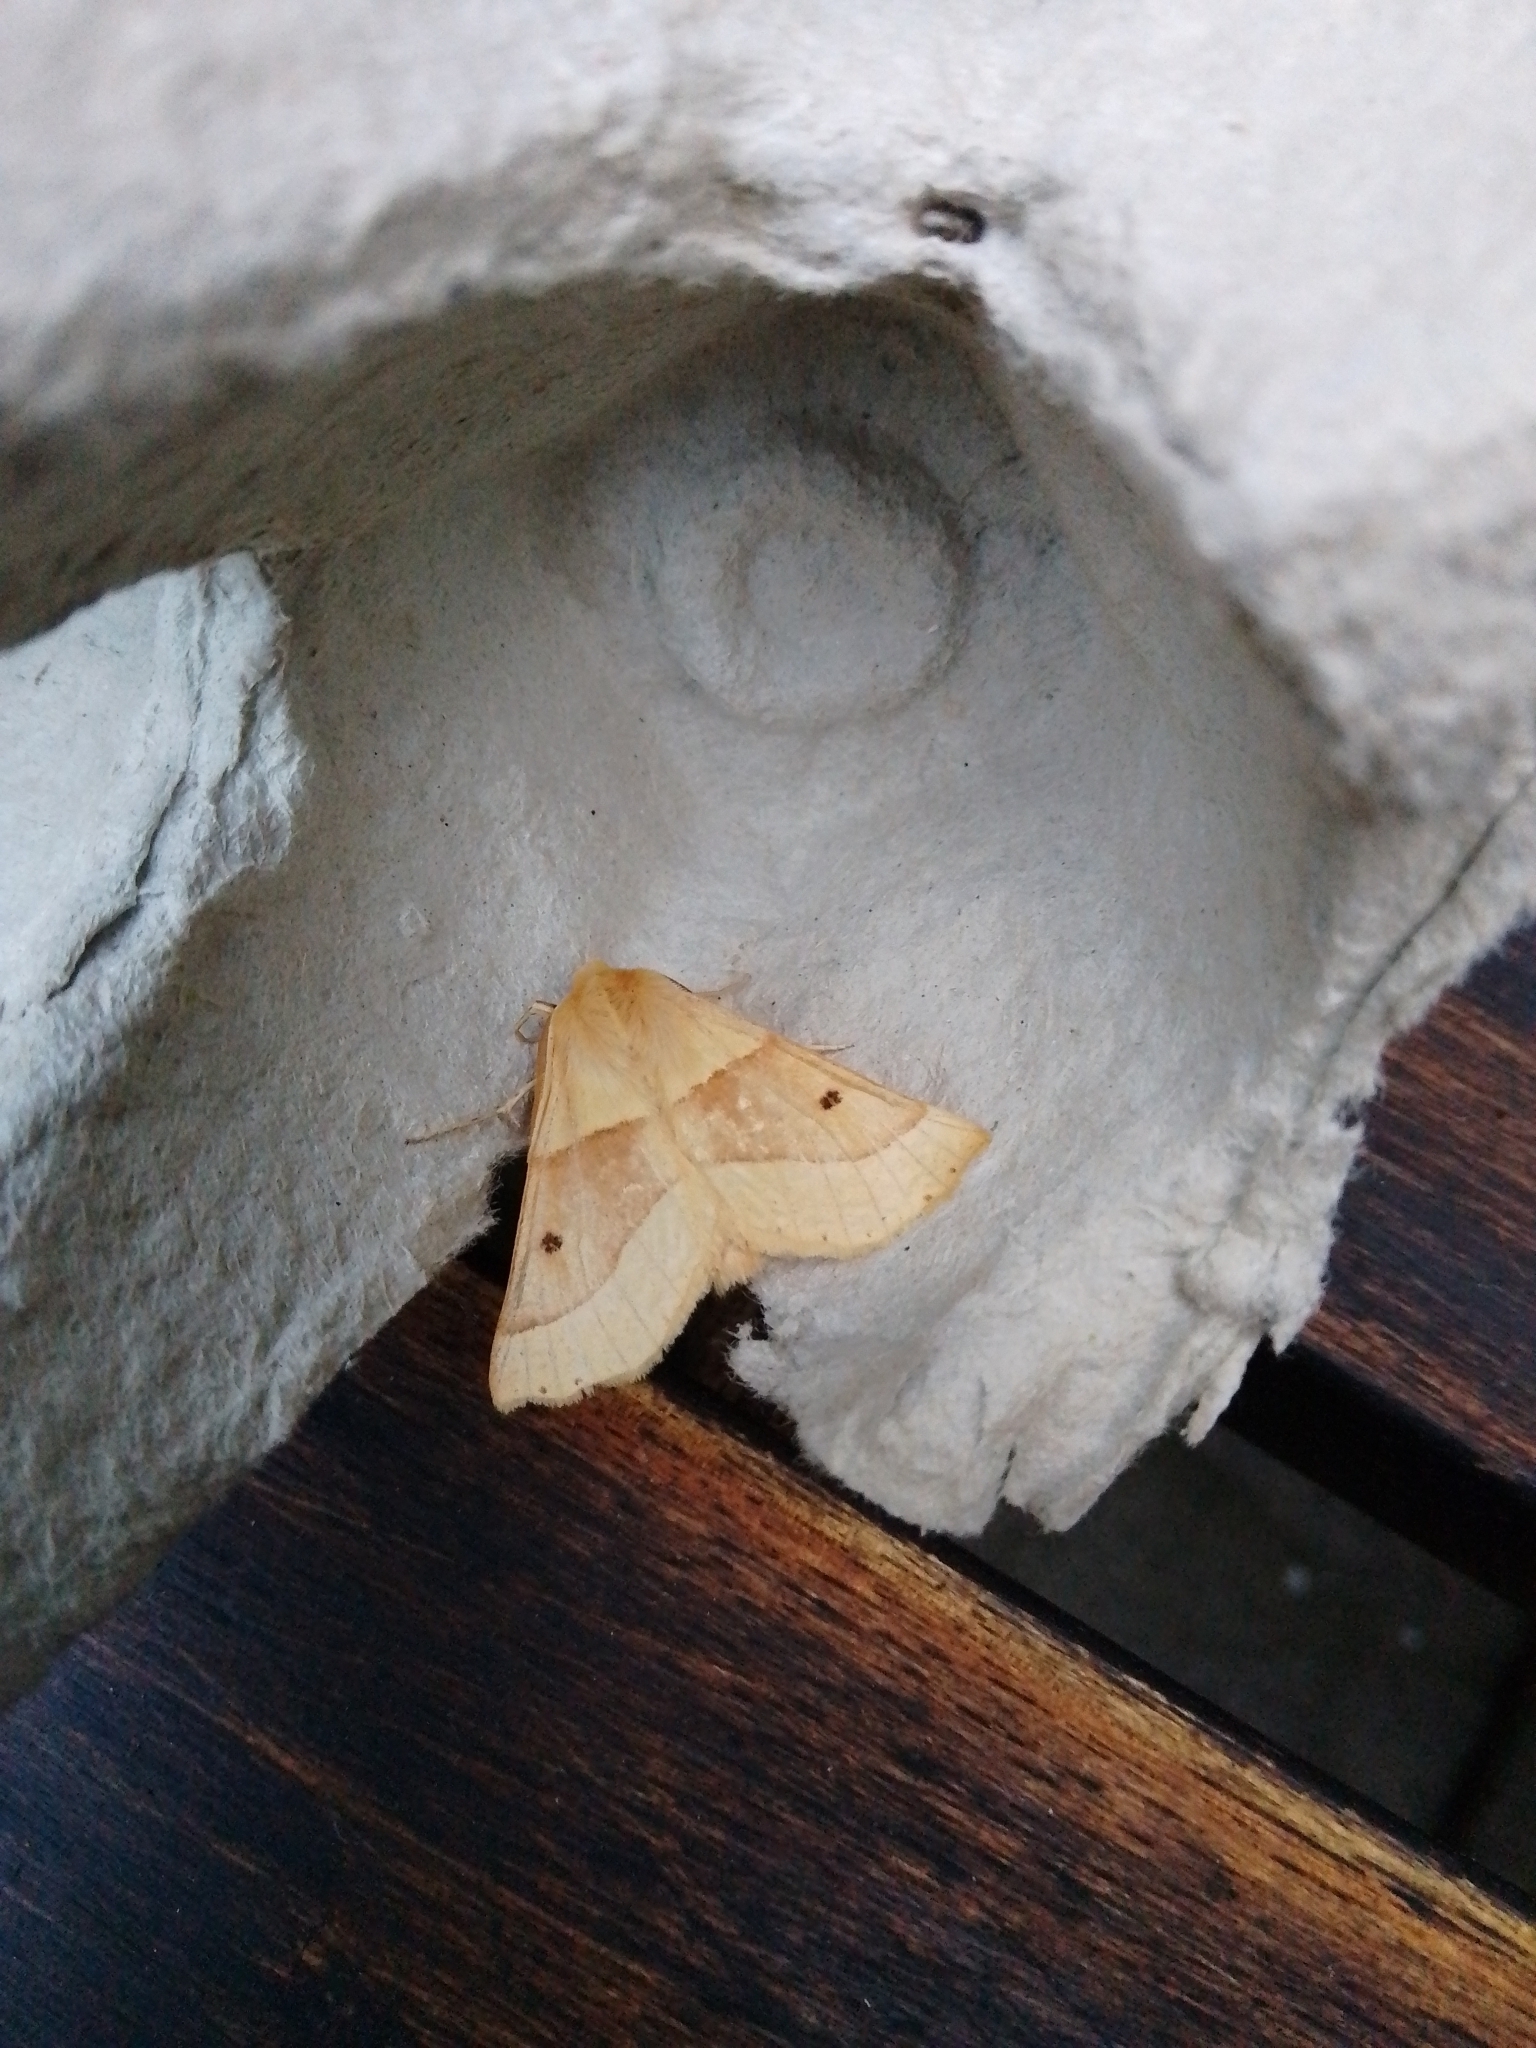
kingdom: Animalia
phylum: Arthropoda
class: Insecta
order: Lepidoptera
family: Geometridae
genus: Crocallis
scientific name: Crocallis elinguaria
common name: Scalloped oak
